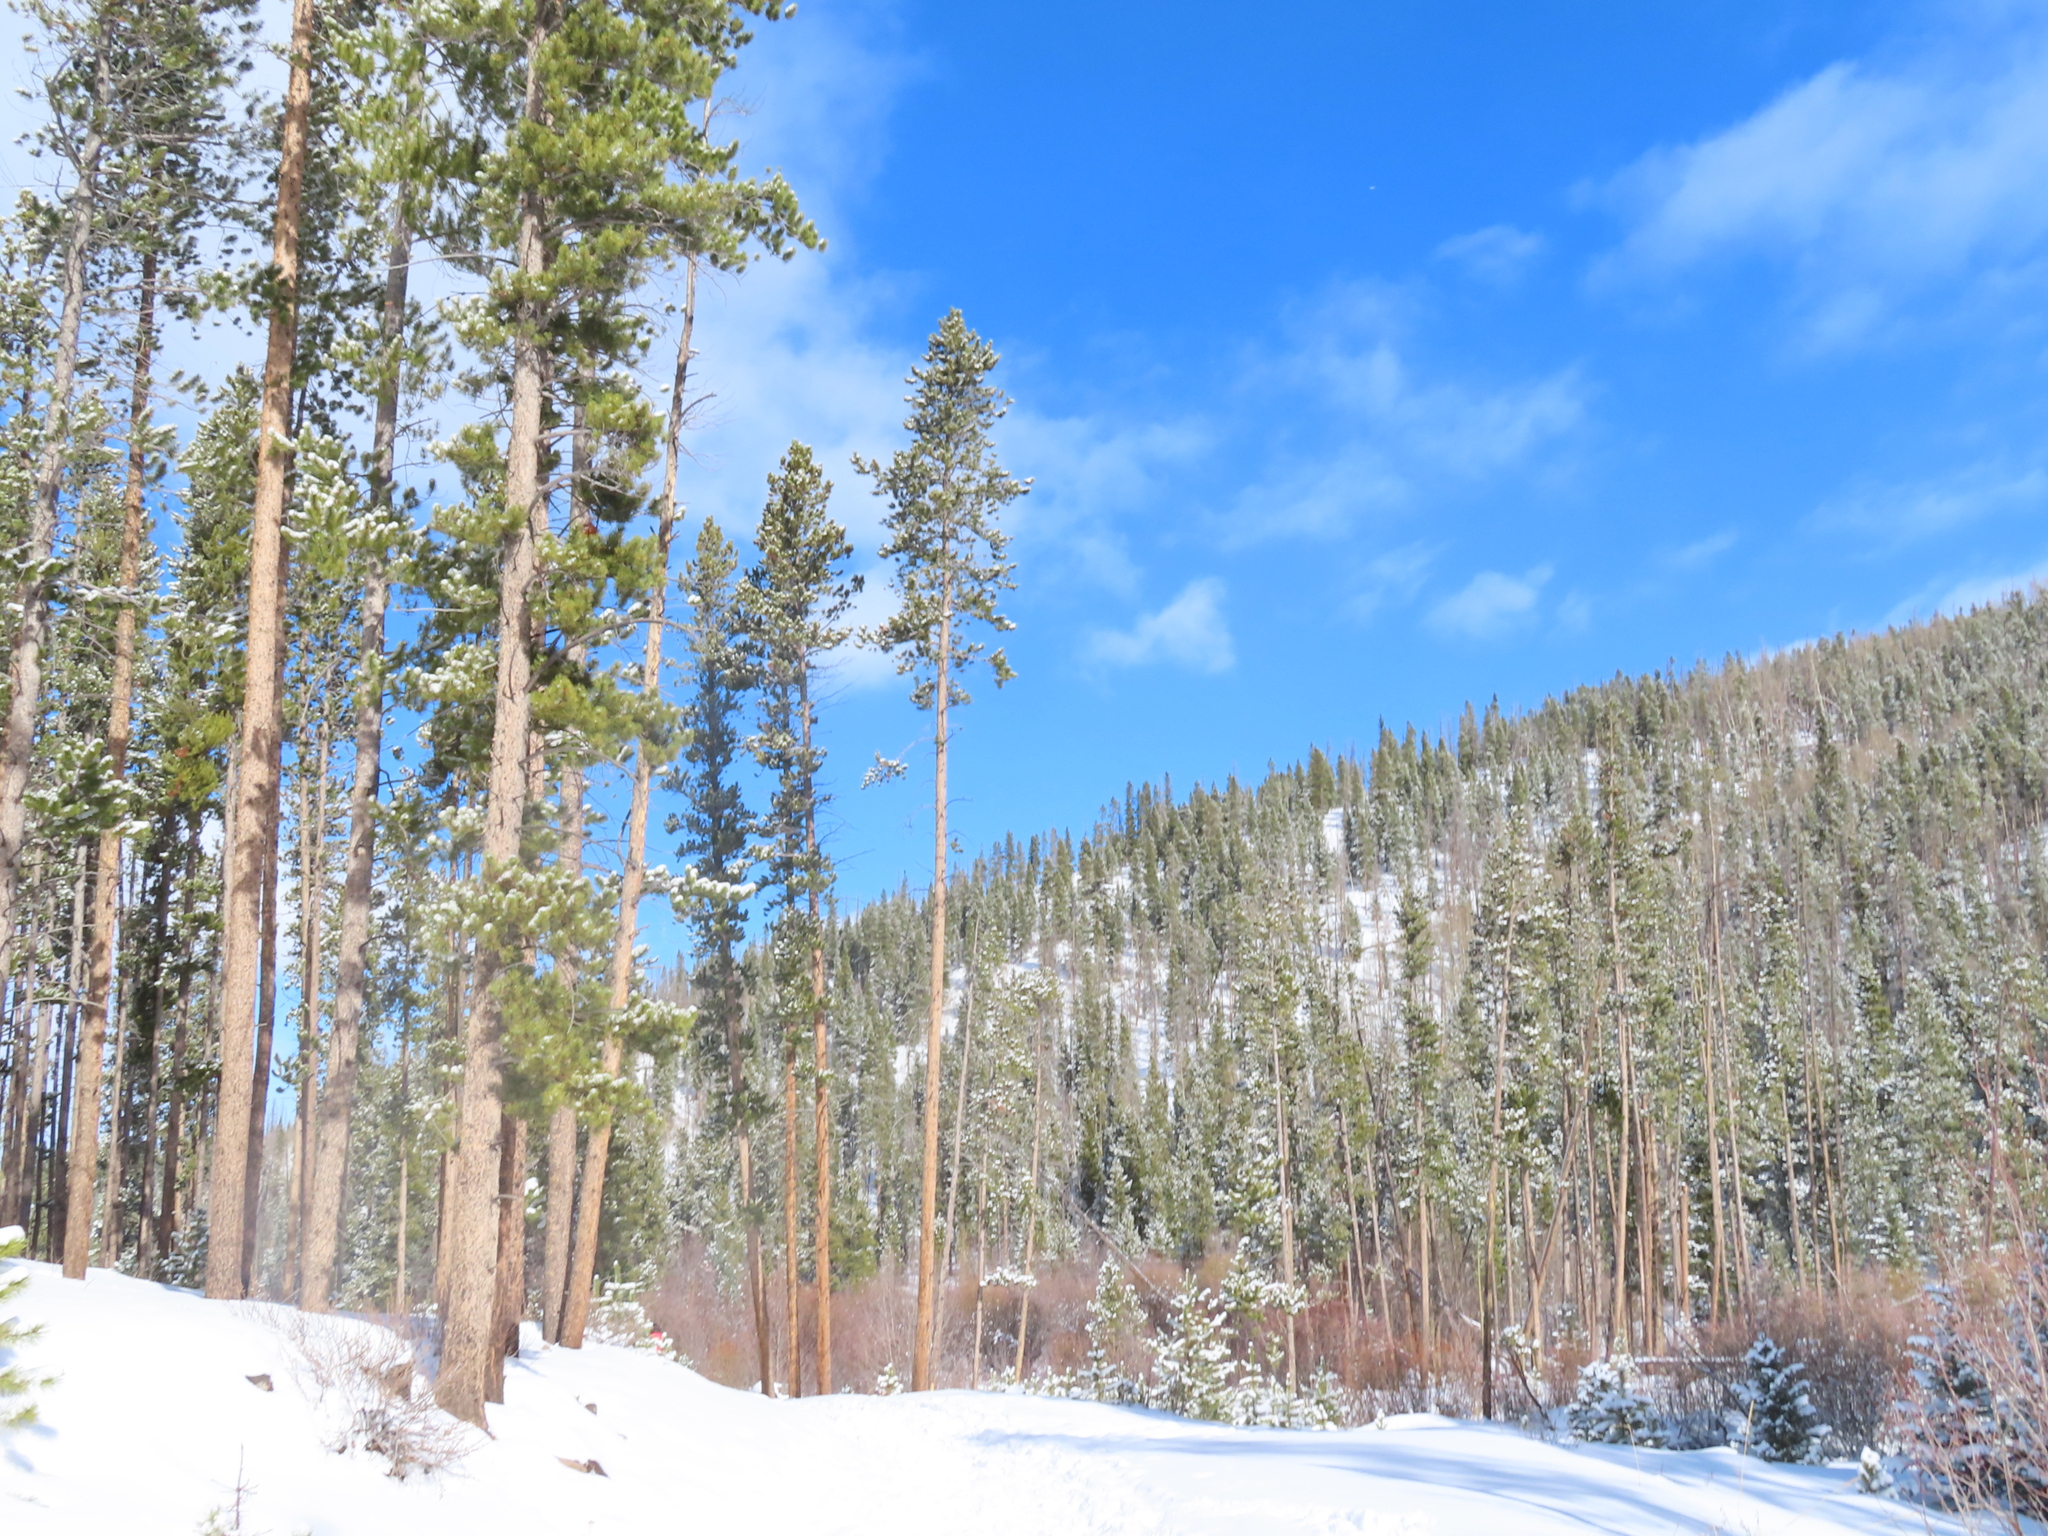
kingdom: Plantae
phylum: Tracheophyta
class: Pinopsida
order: Pinales
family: Pinaceae
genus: Pinus
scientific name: Pinus contorta
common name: Lodgepole pine
